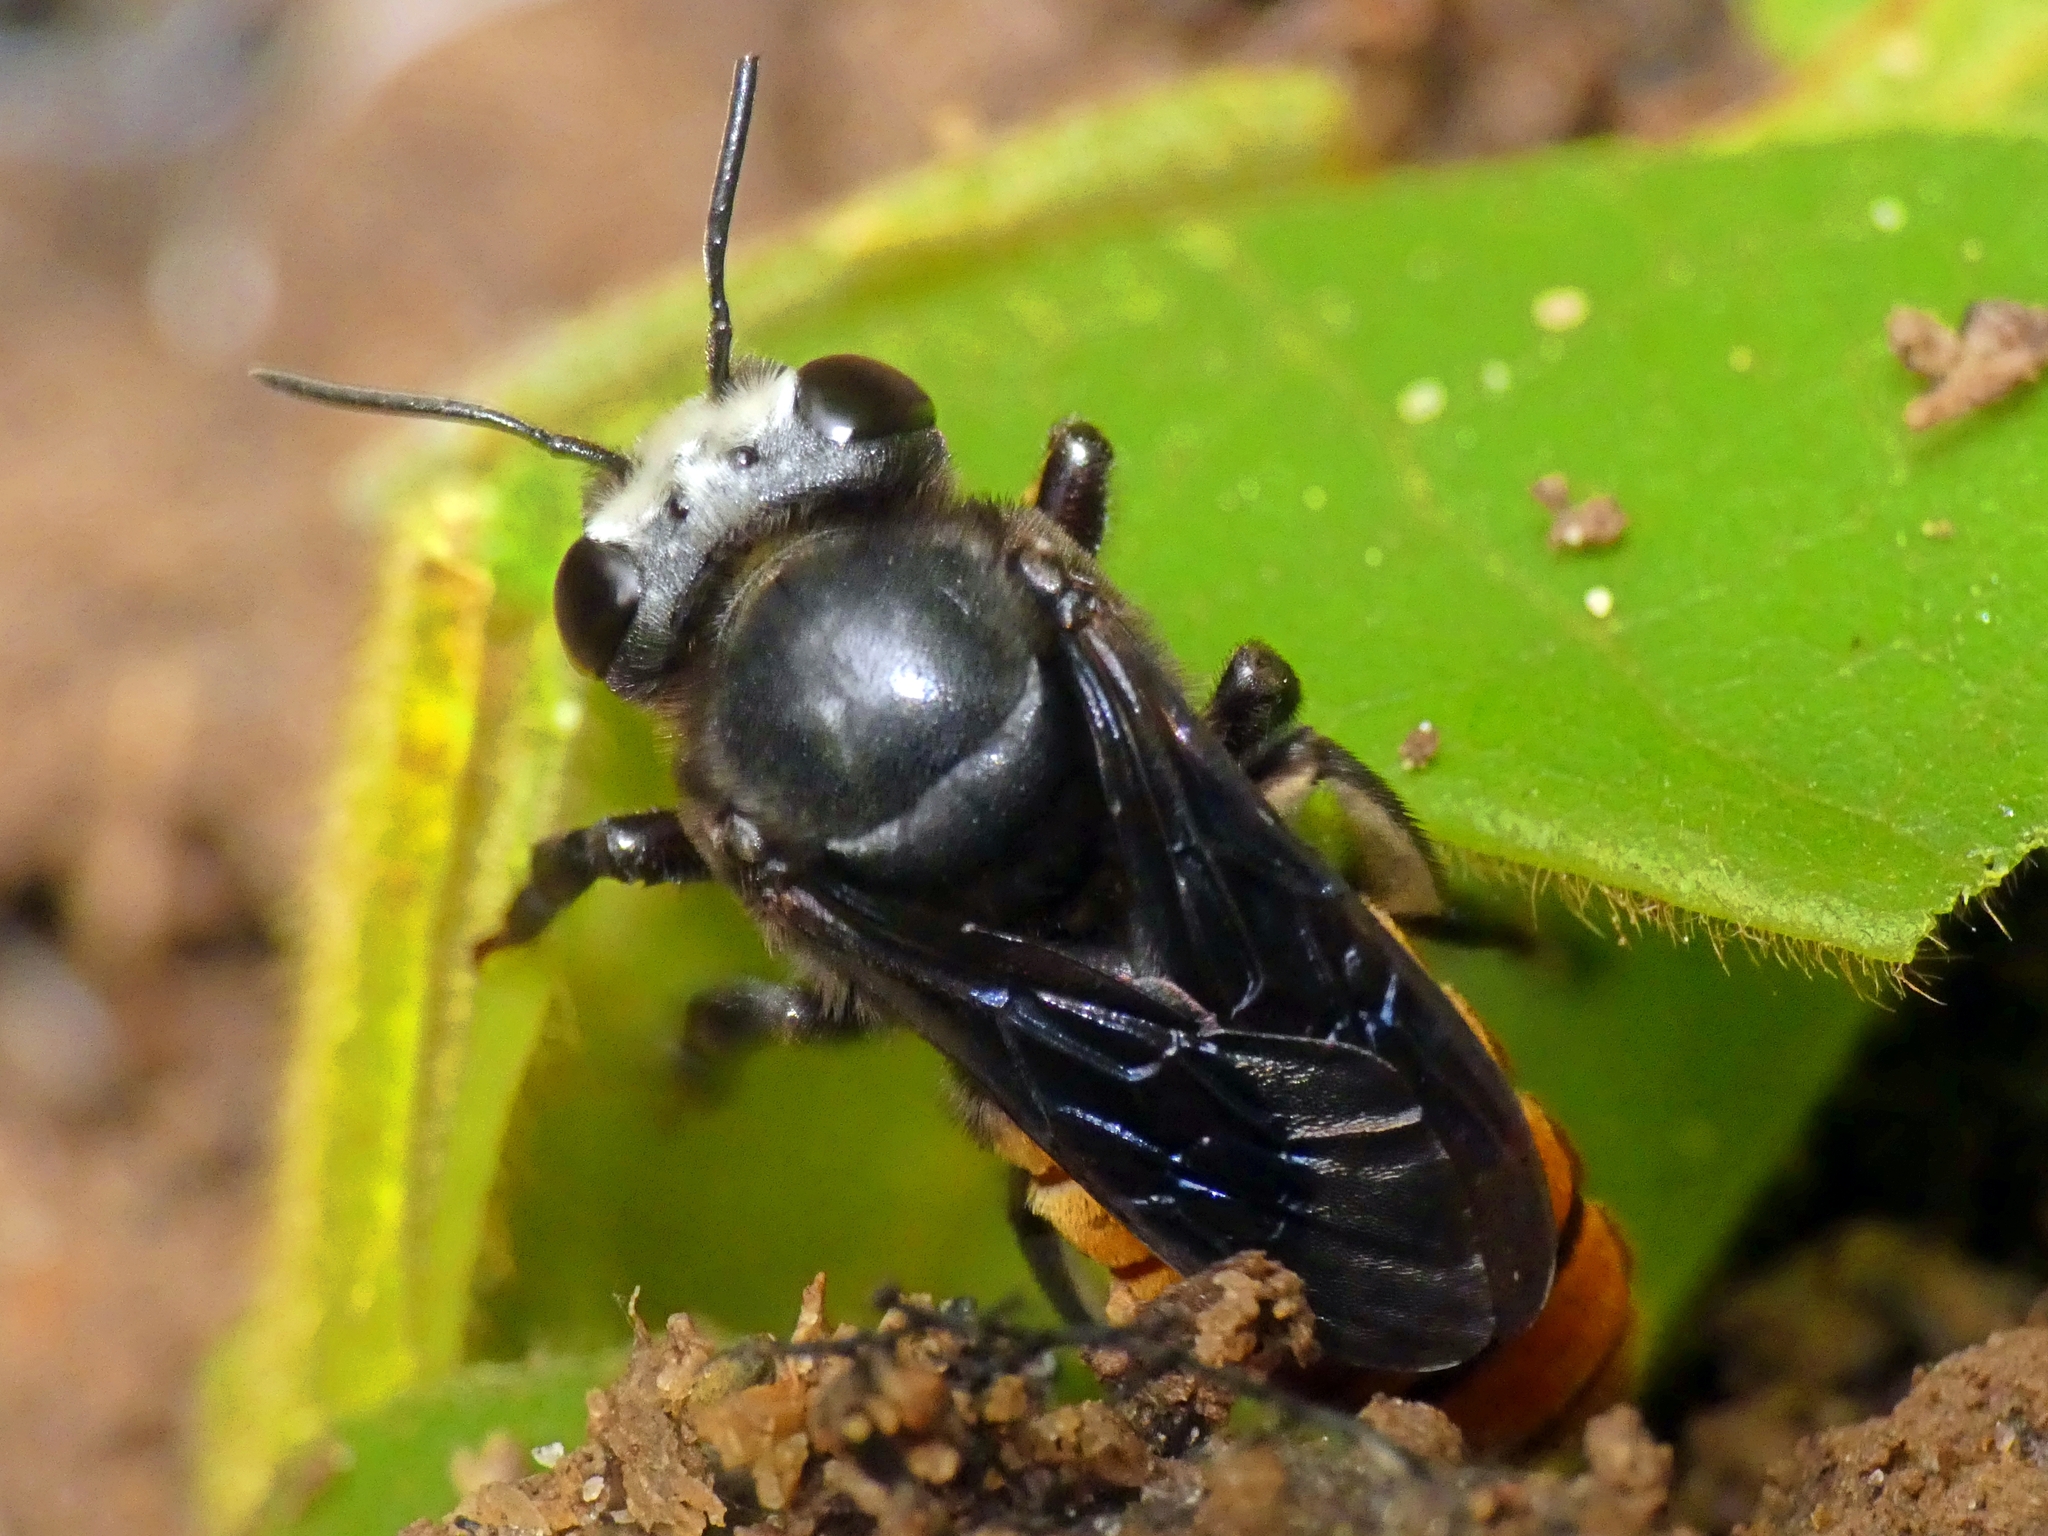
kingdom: Animalia
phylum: Arthropoda
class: Insecta
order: Hymenoptera
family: Megachilidae
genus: Megachile
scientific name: Megachile mystacea
